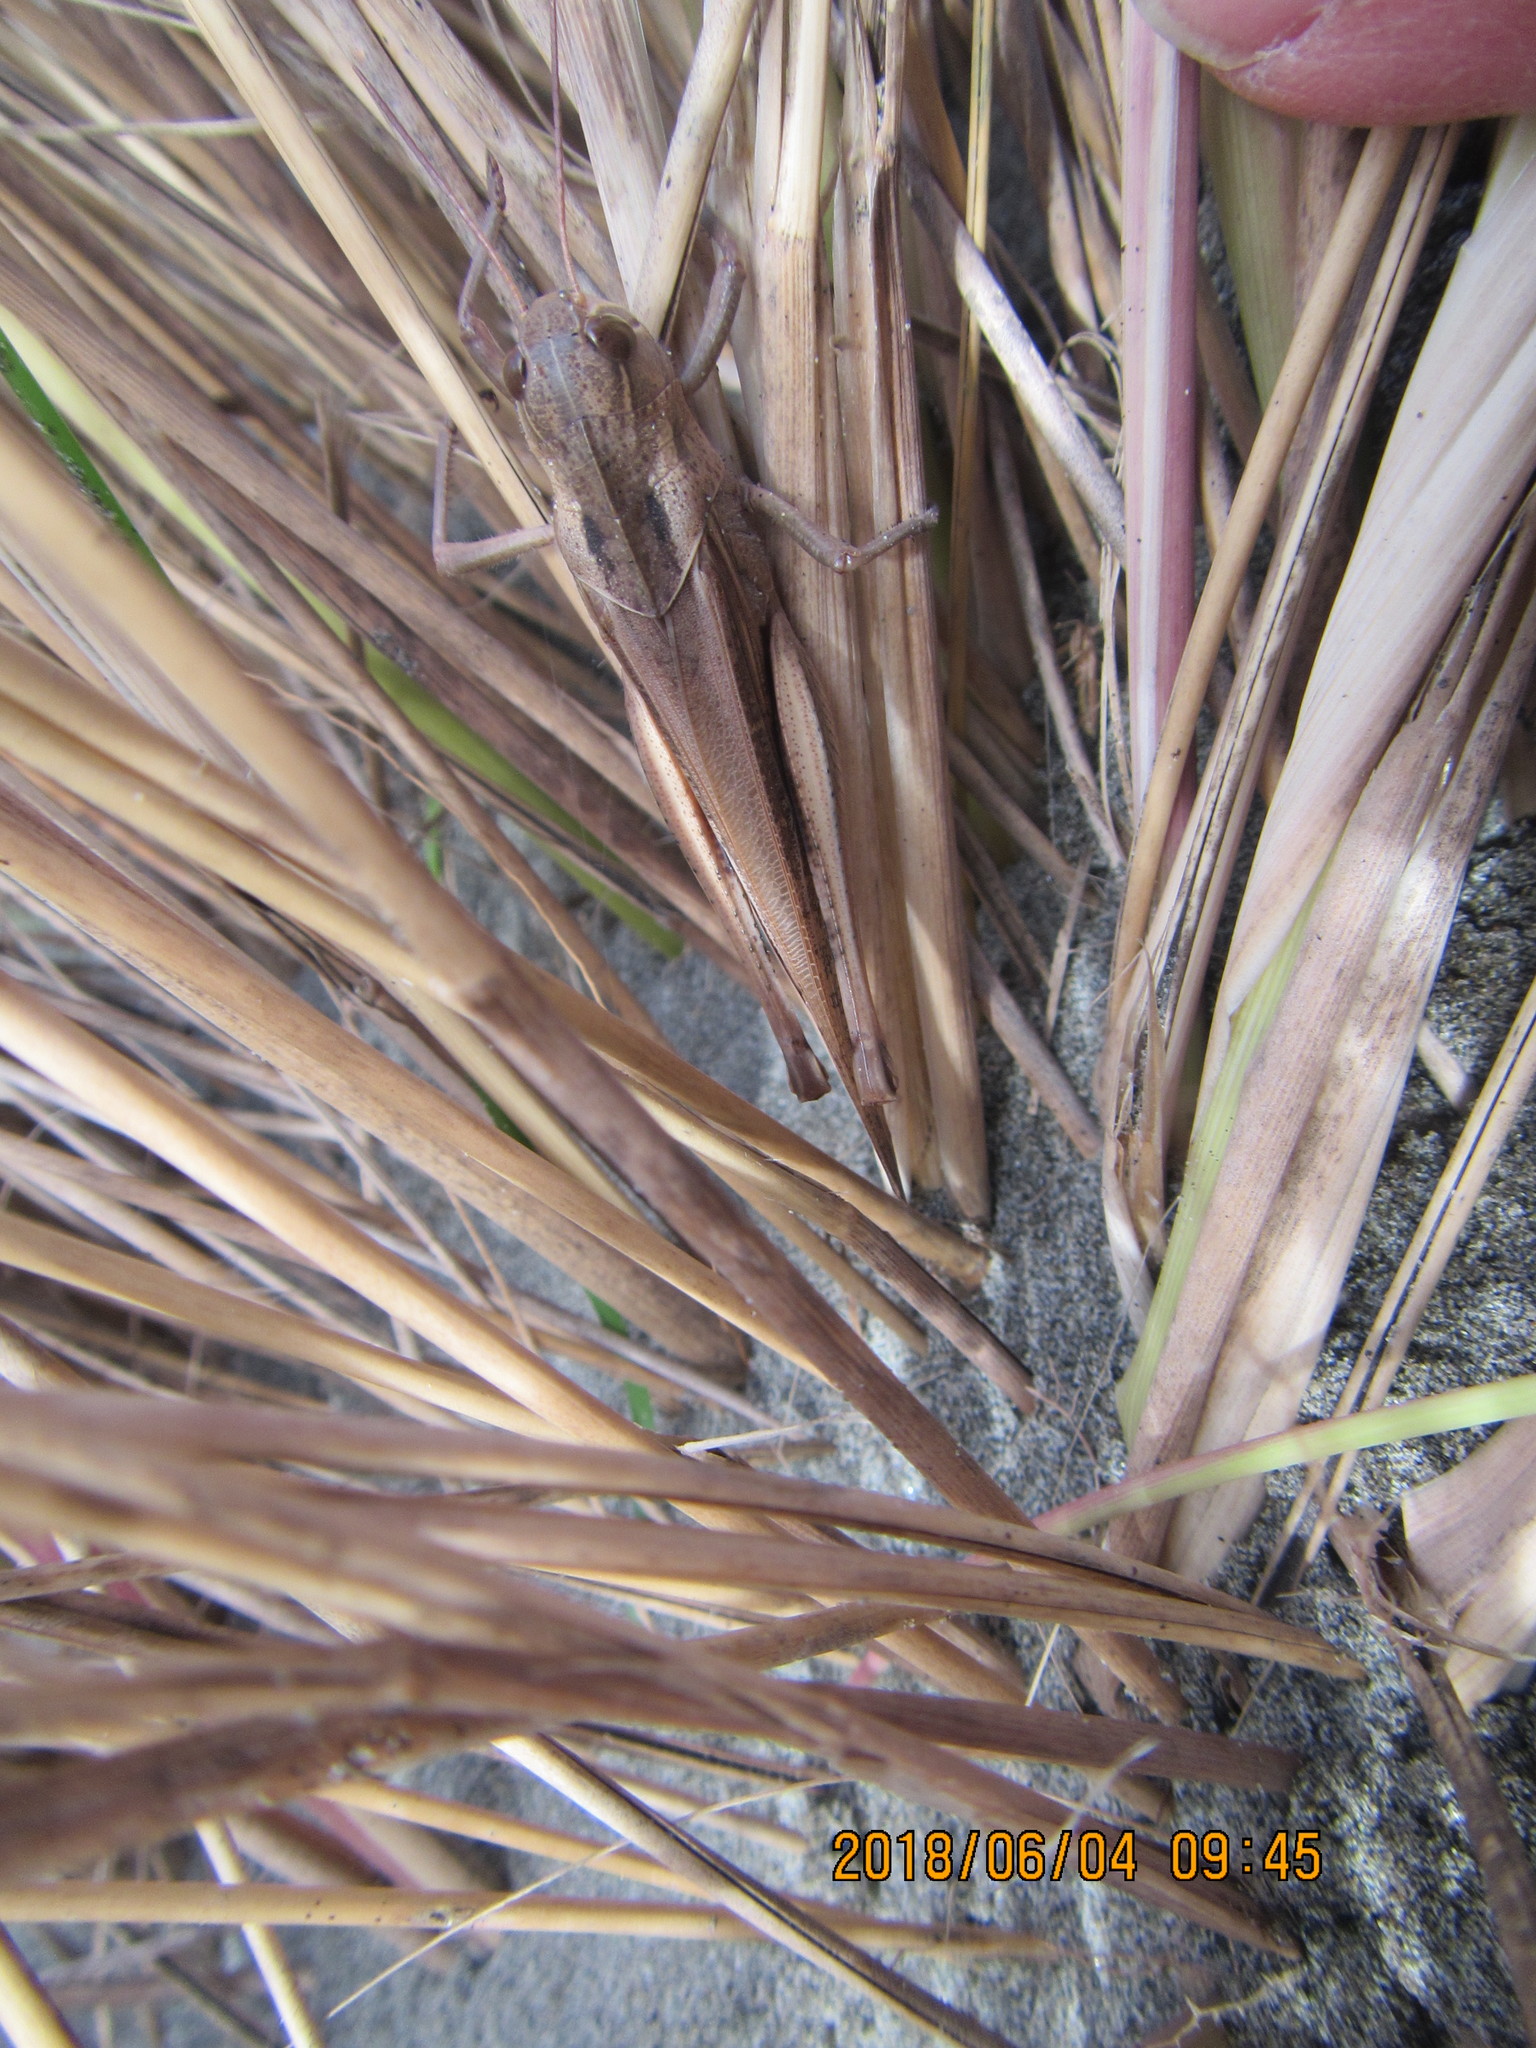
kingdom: Animalia
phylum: Arthropoda
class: Insecta
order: Orthoptera
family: Acrididae
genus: Locusta
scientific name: Locusta migratoria
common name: Migratory locust
